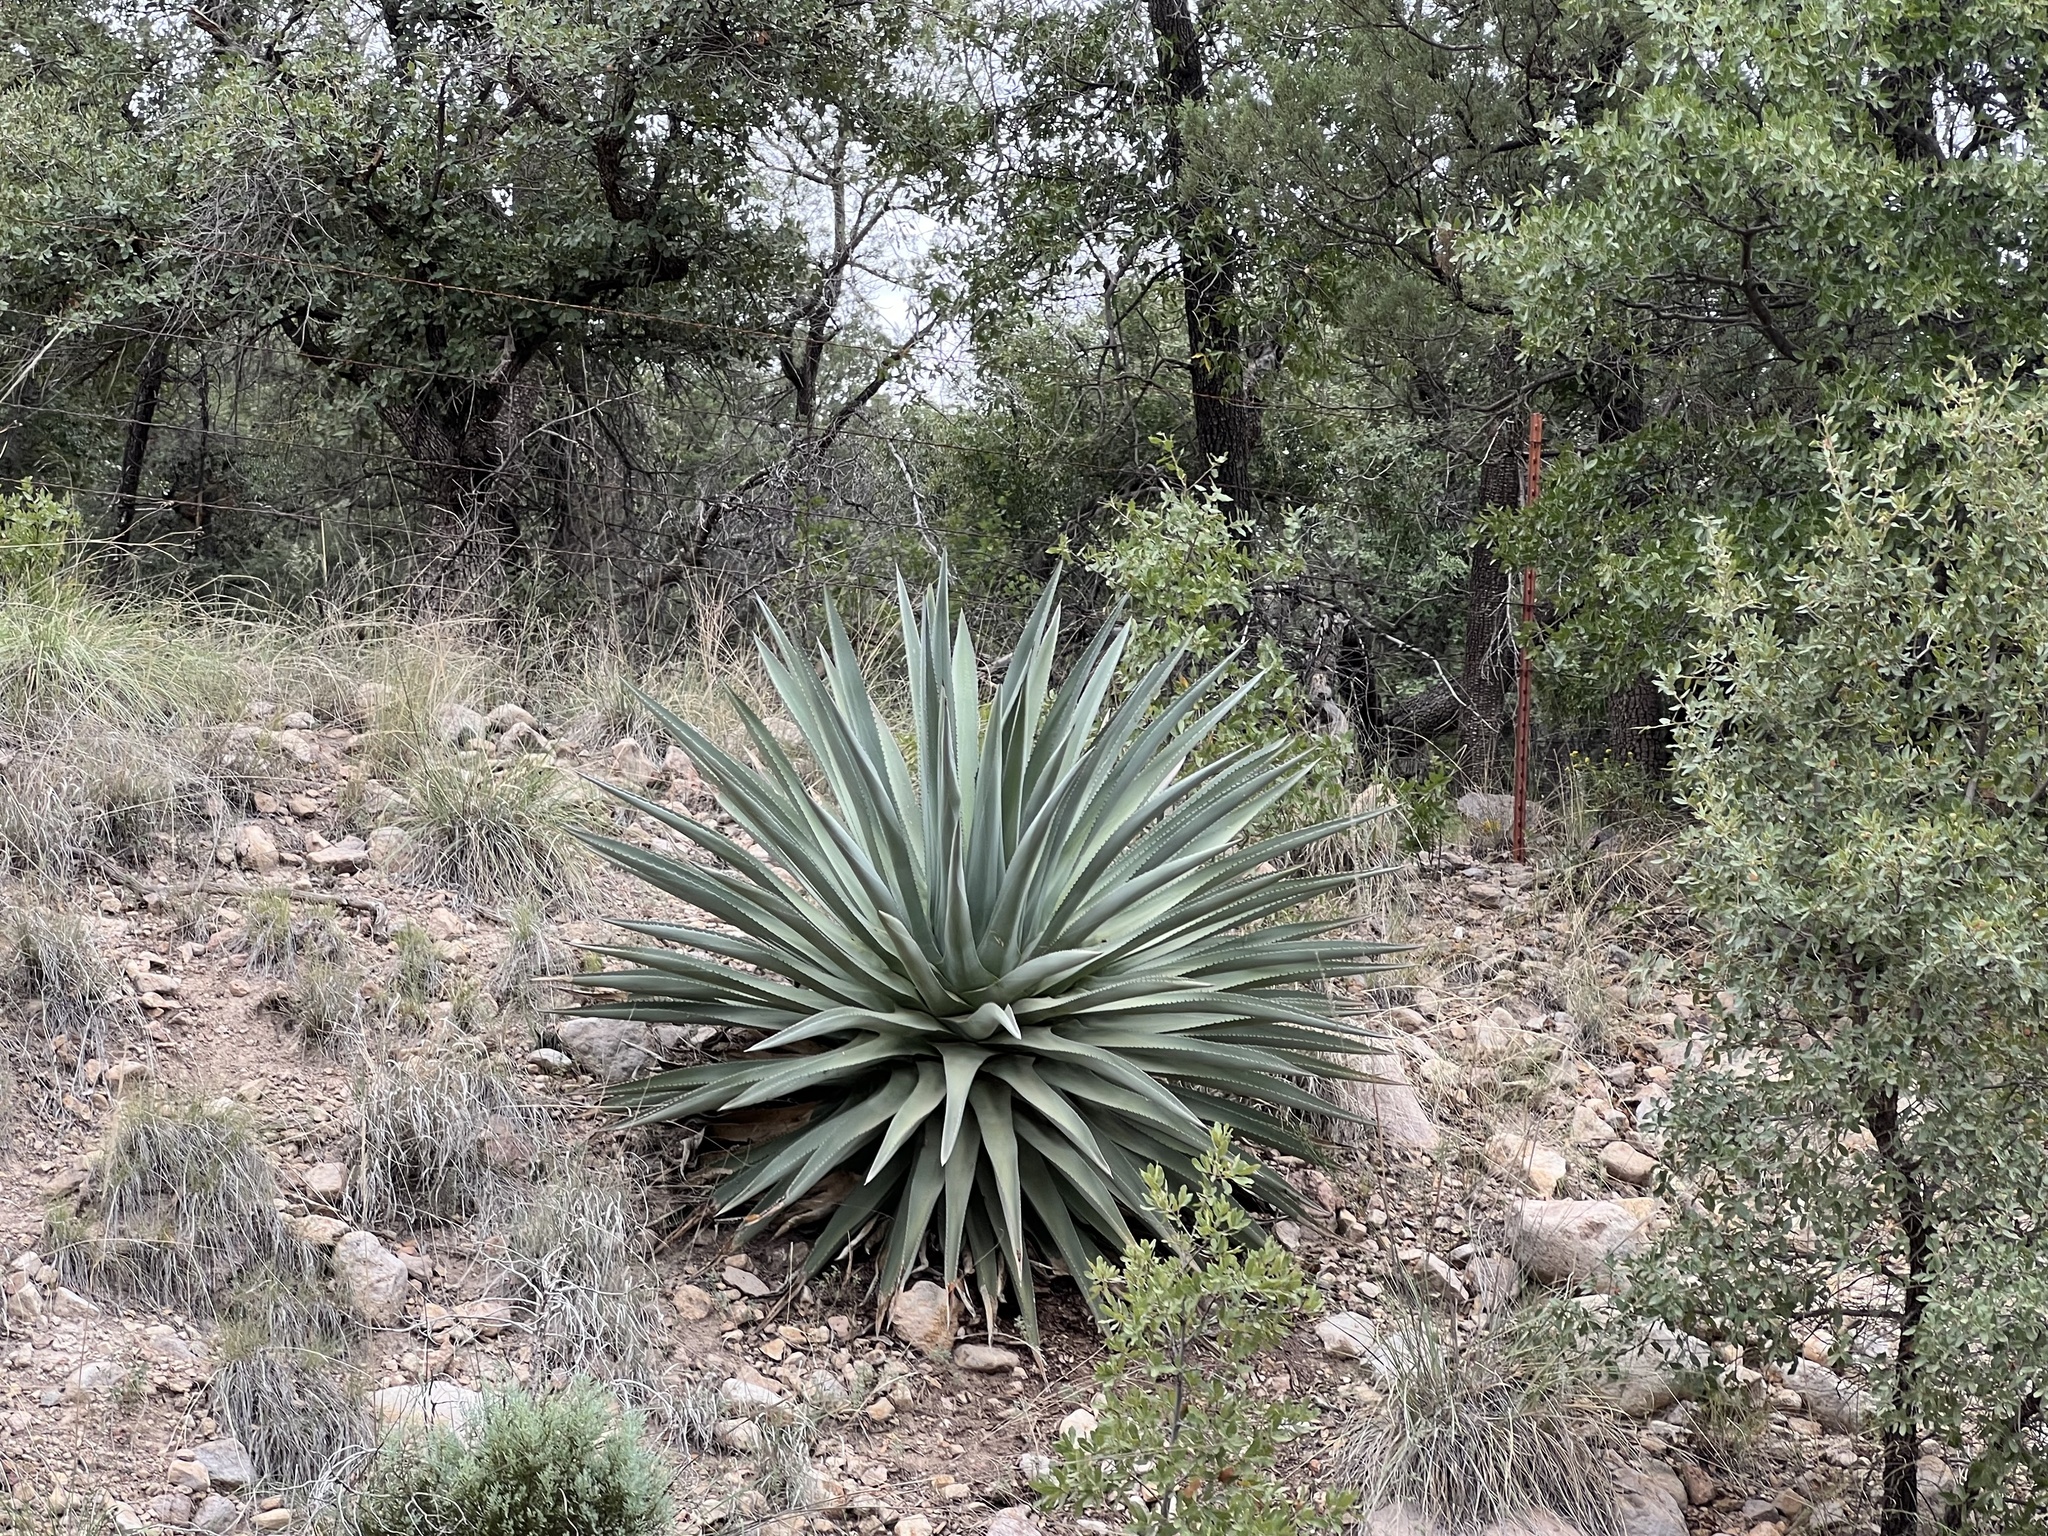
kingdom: Plantae
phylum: Tracheophyta
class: Liliopsida
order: Asparagales
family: Asparagaceae
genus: Agave
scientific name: Agave palmeri
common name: Palmer agave
